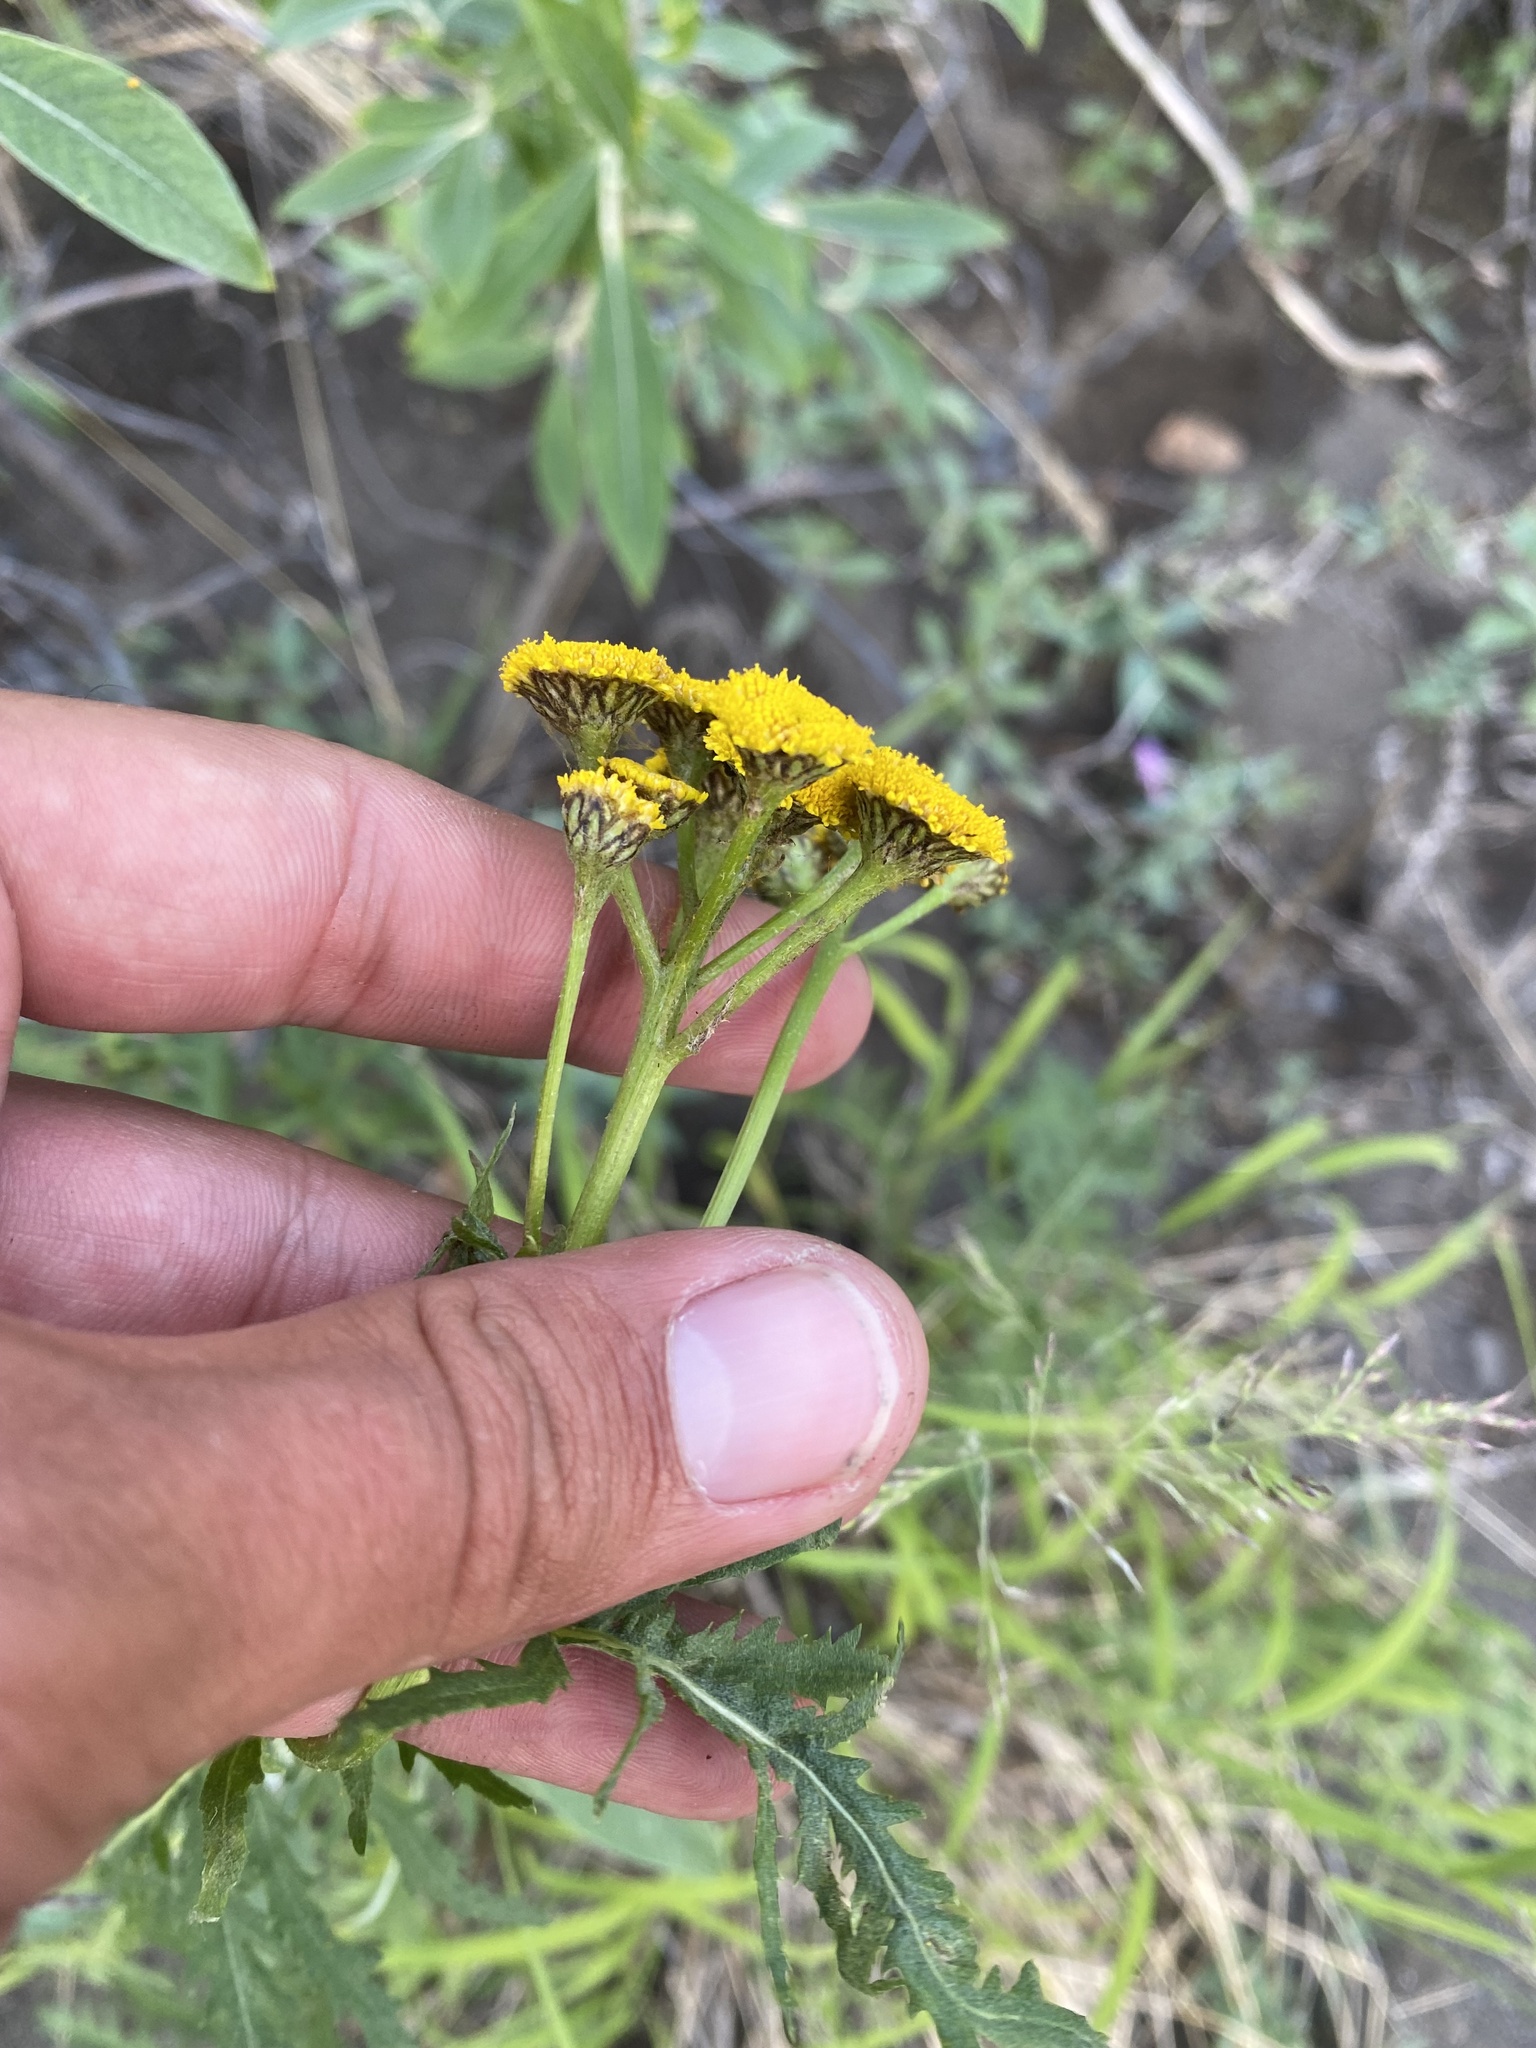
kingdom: Plantae
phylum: Tracheophyta
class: Magnoliopsida
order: Asterales
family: Asteraceae
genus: Tanacetum
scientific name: Tanacetum vulgare
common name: Common tansy
